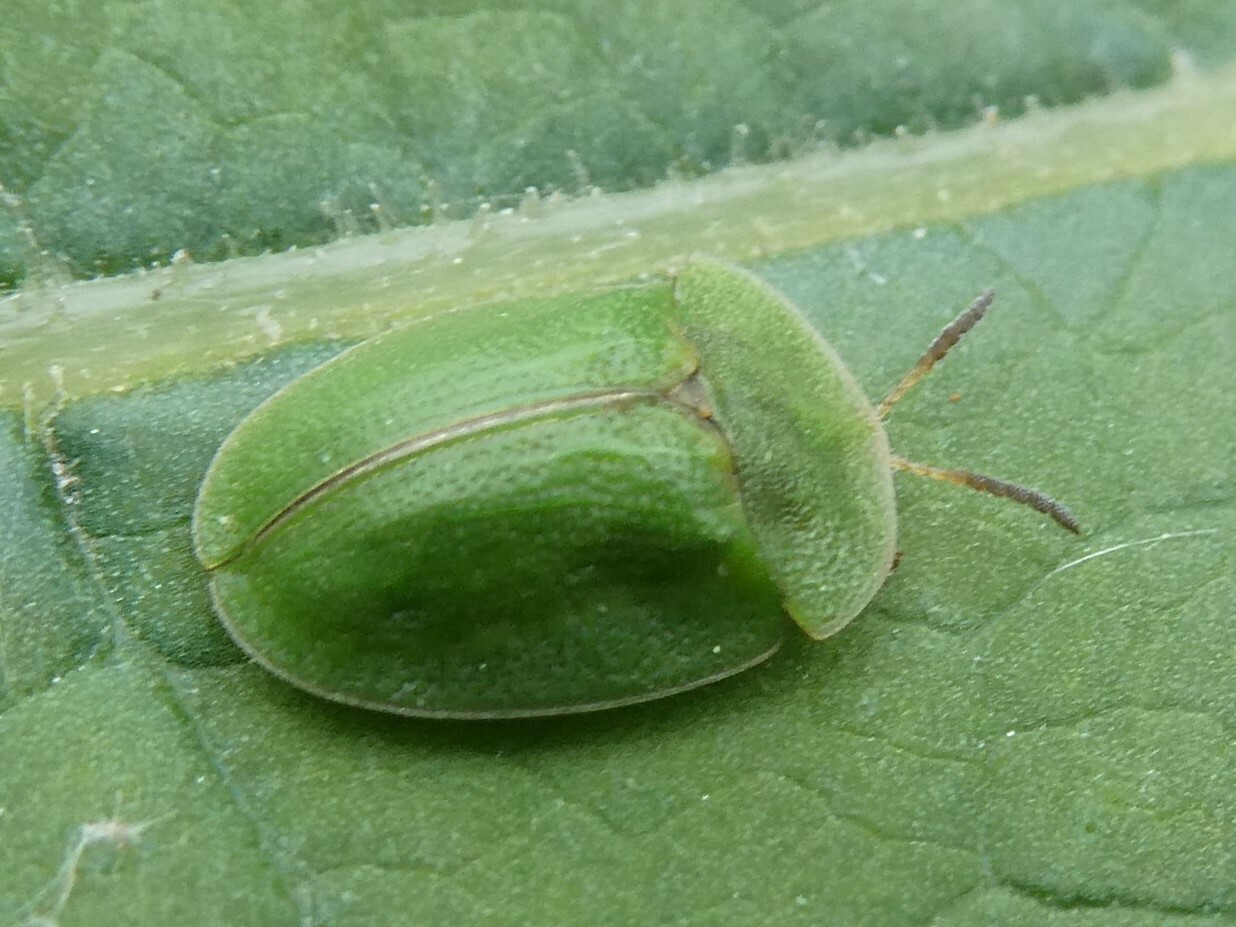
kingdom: Animalia
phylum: Arthropoda
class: Insecta
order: Coleoptera
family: Chrysomelidae
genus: Cassida
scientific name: Cassida rubiginosa
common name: Thistle tortoise beetle
